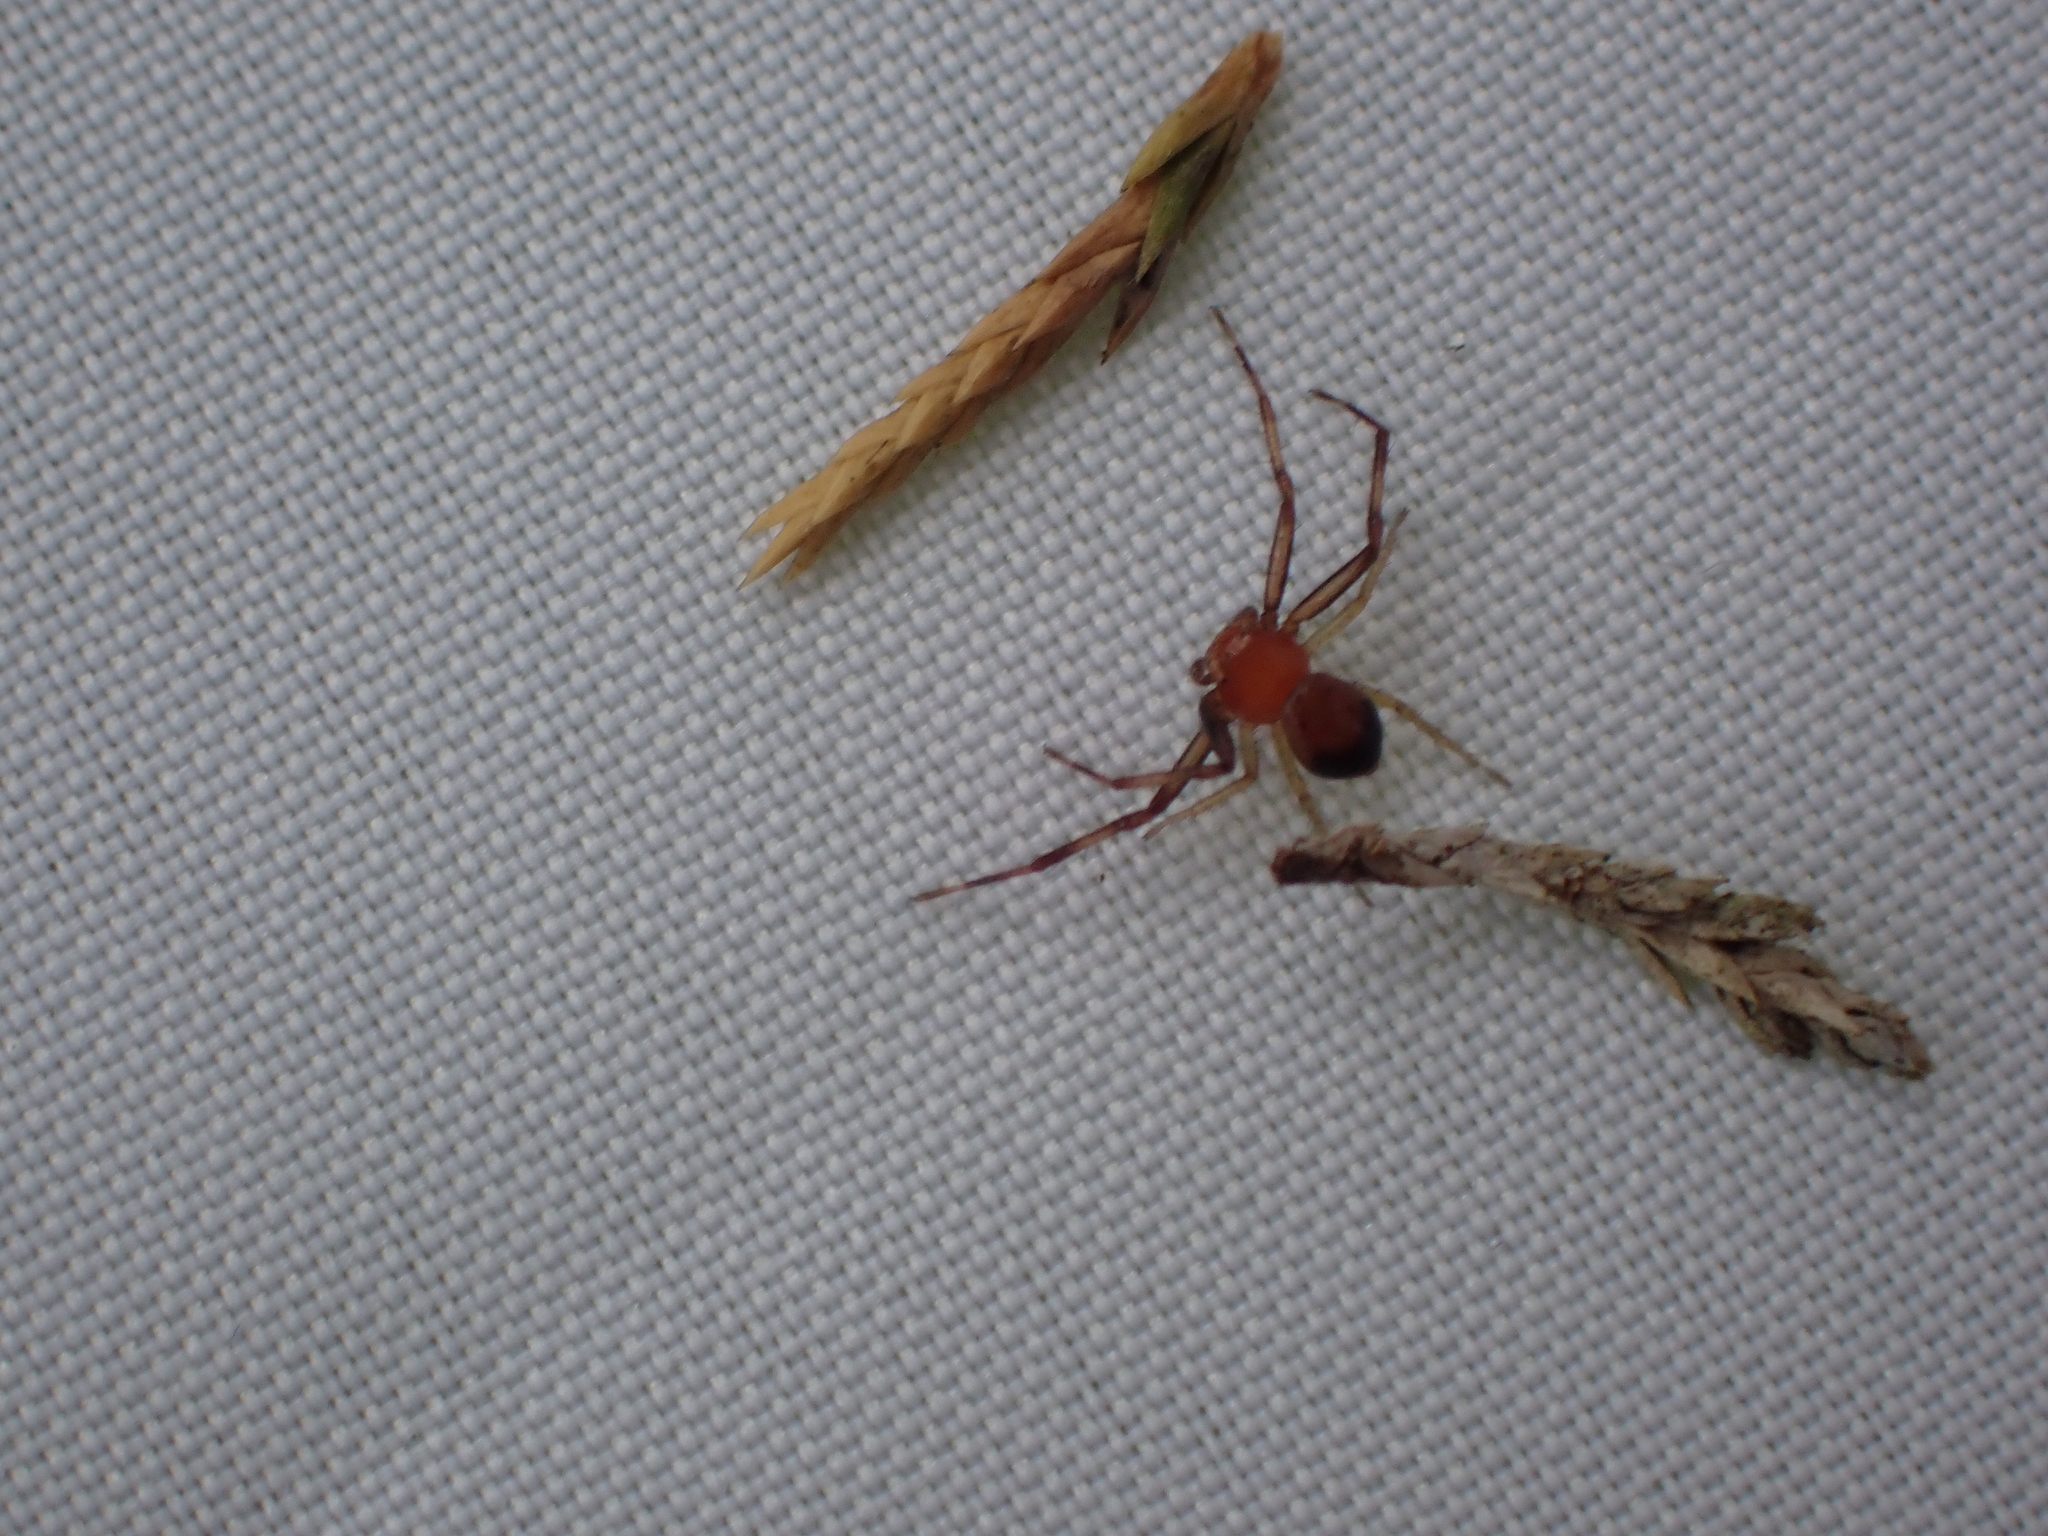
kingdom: Animalia
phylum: Arthropoda
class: Arachnida
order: Araneae
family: Thomisidae
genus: Synema
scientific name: Synema parvulum
